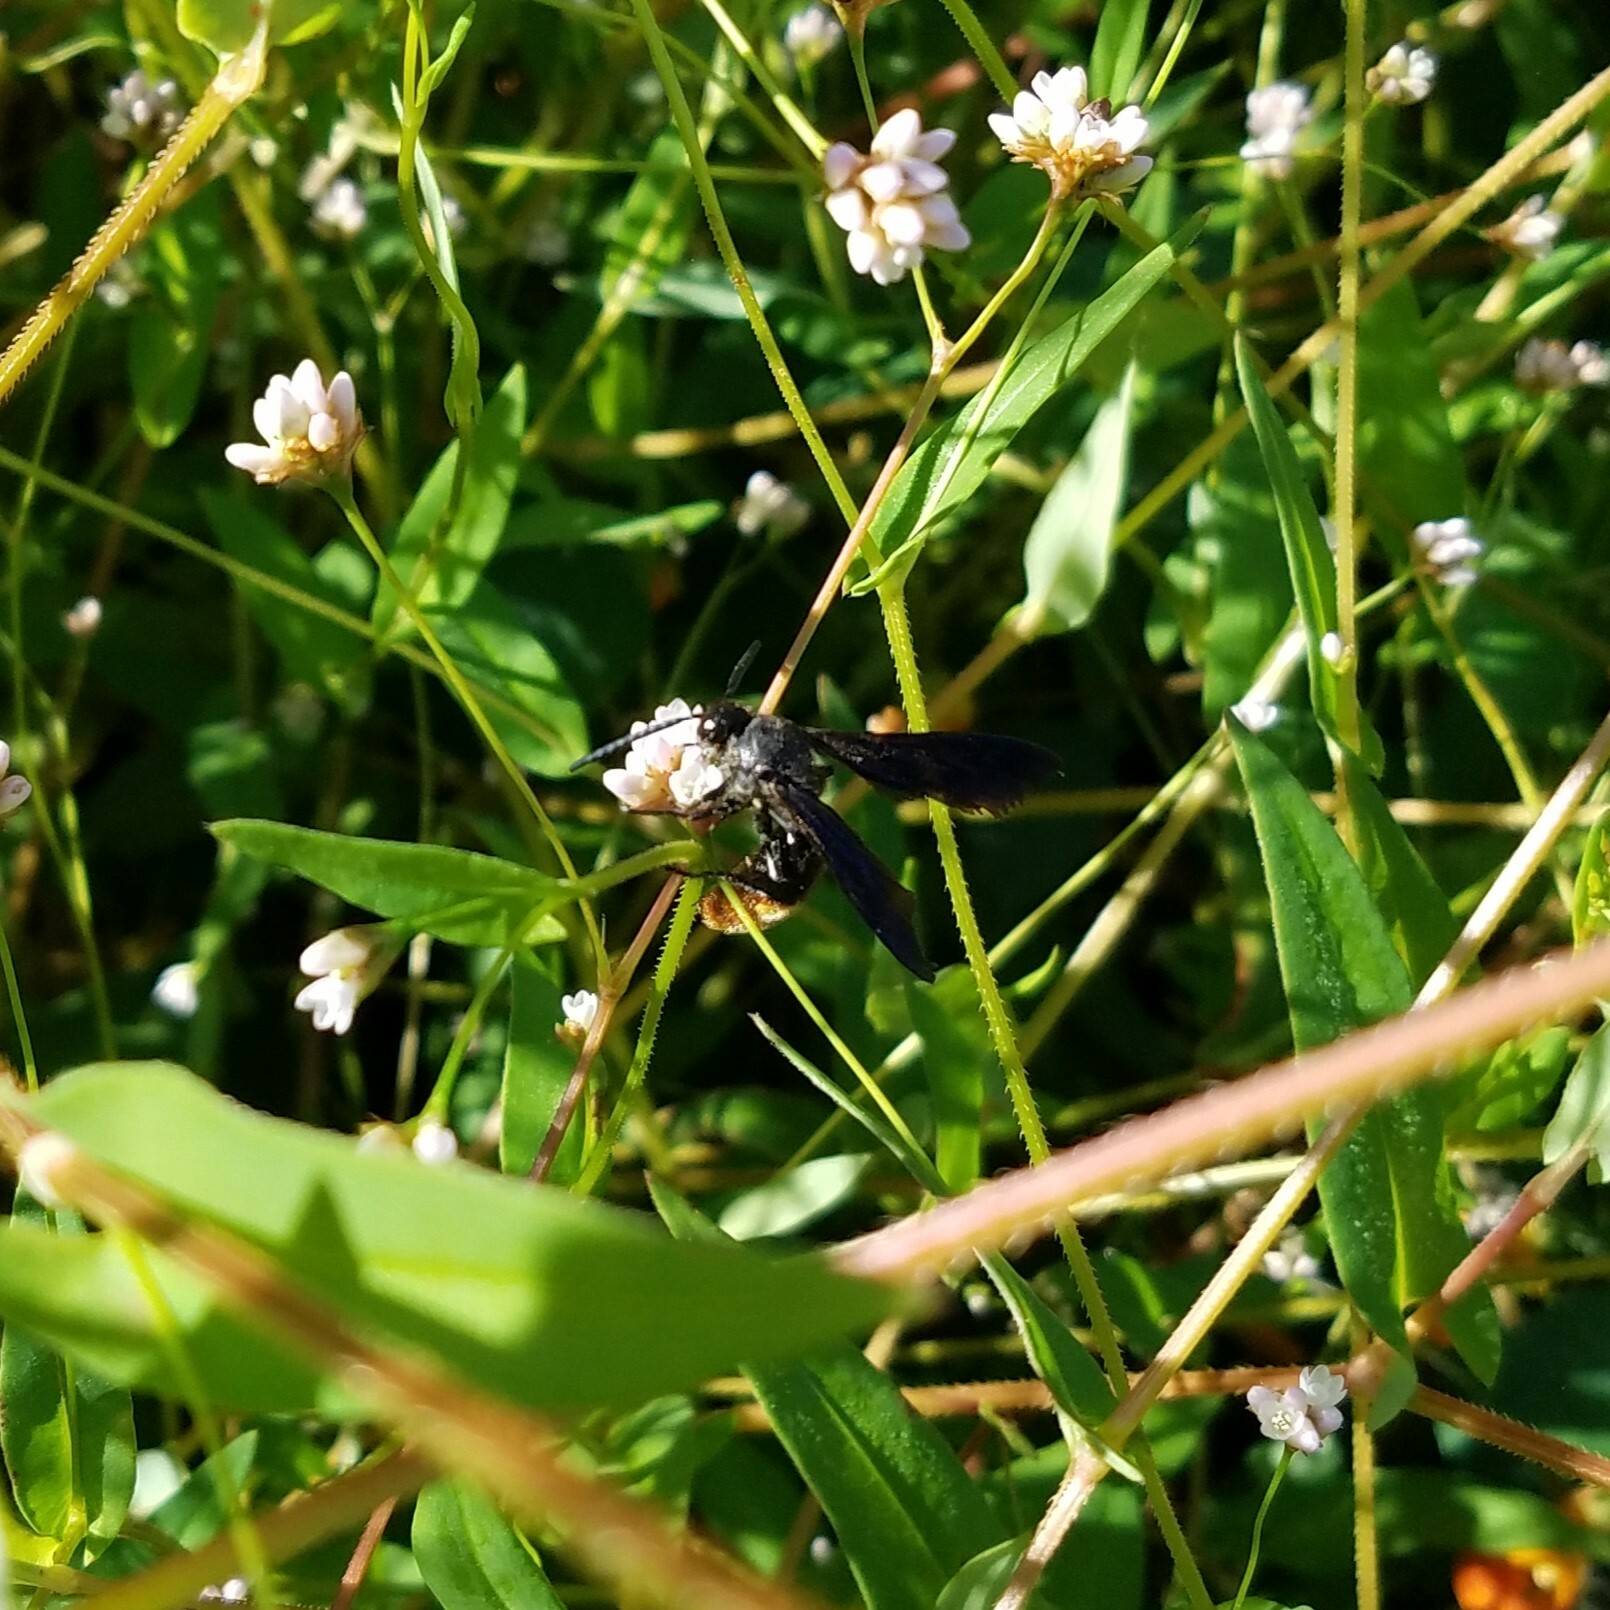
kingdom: Animalia
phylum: Arthropoda
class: Insecta
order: Hymenoptera
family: Scoliidae
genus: Scolia
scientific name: Scolia dubia
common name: Blue-winged scoliid wasp
